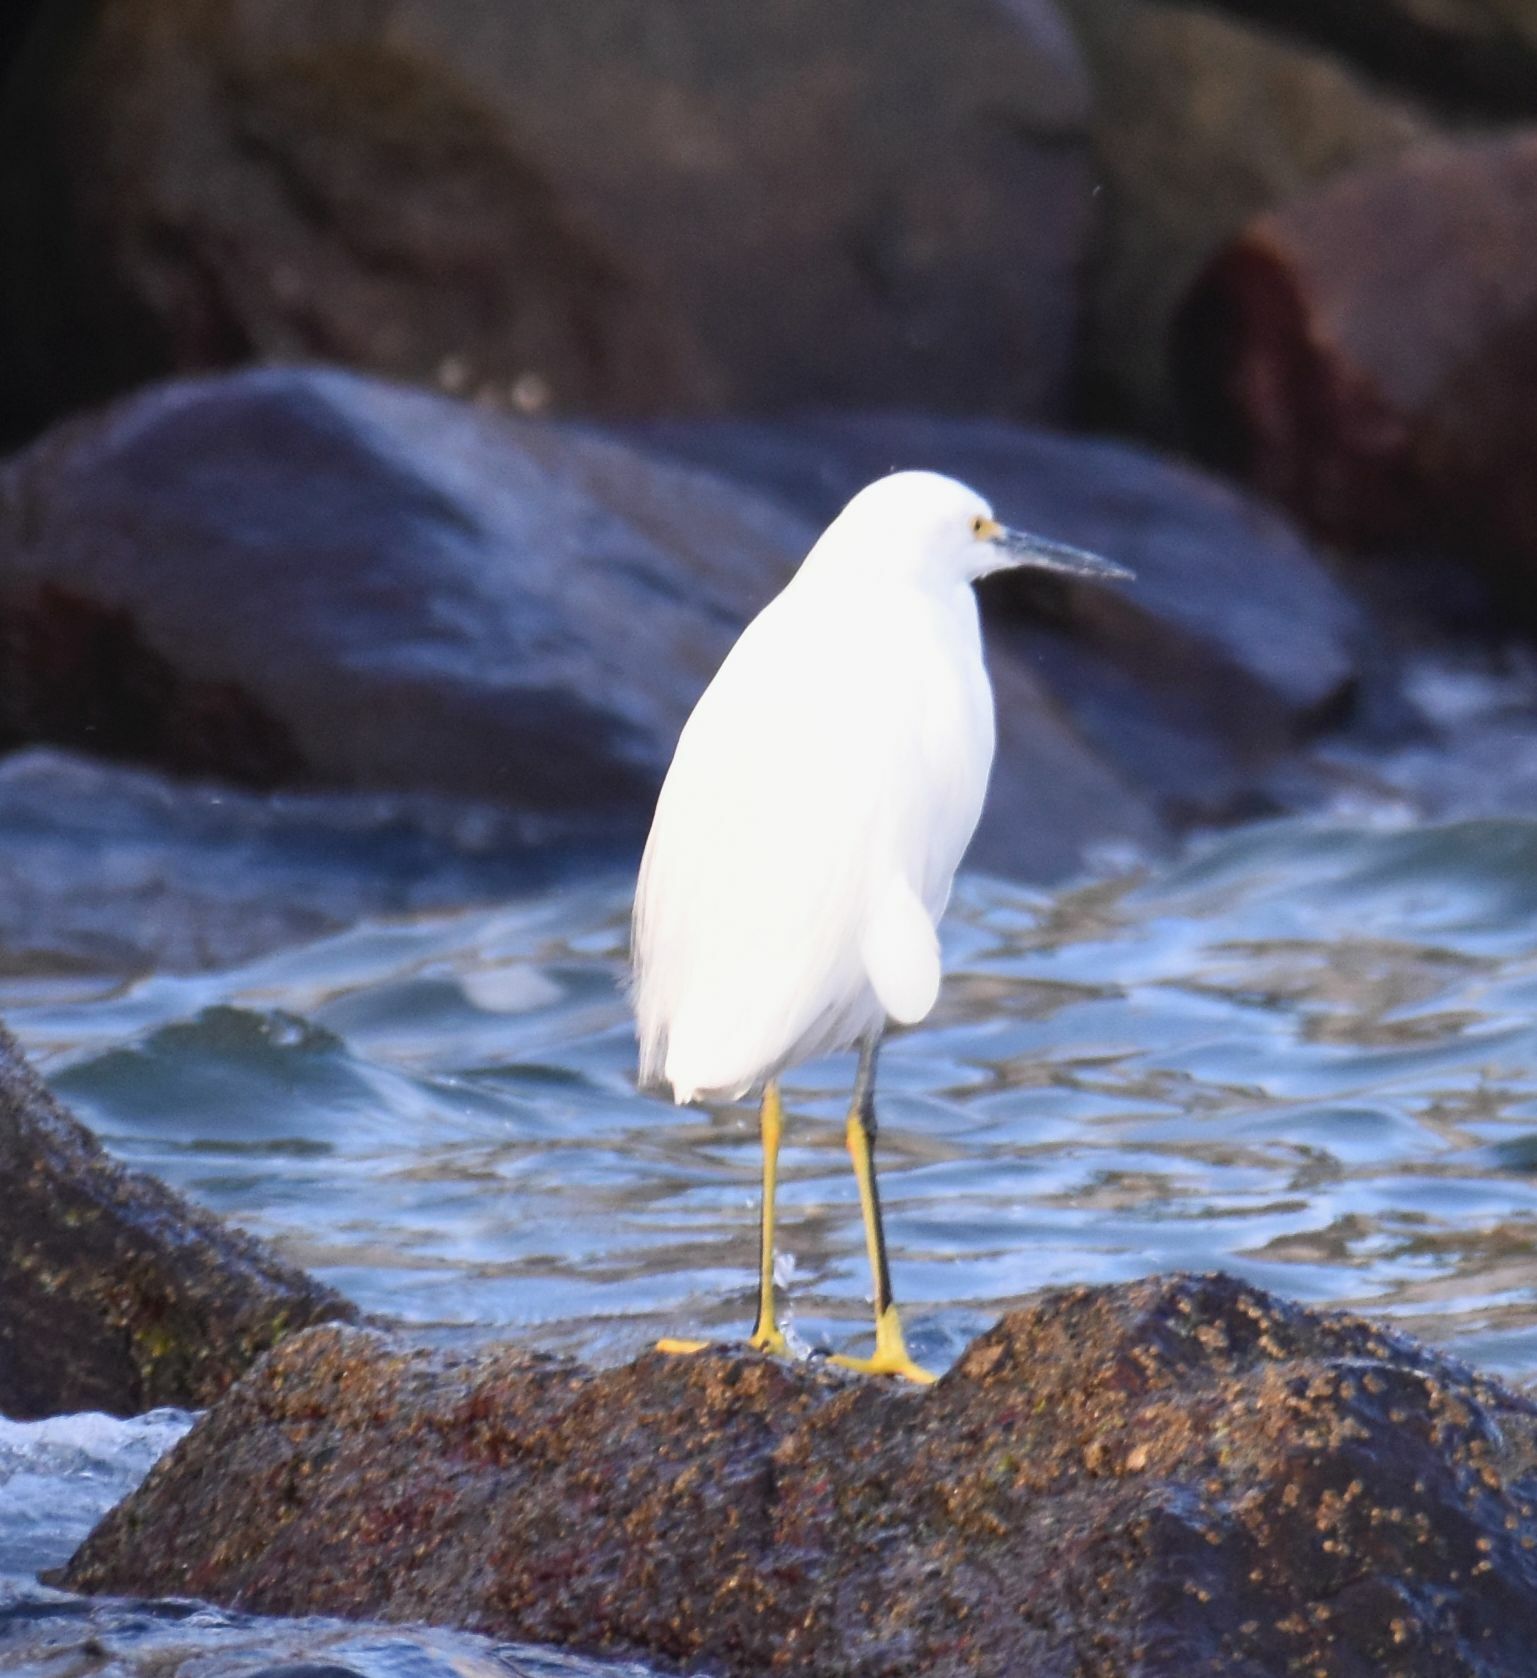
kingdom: Animalia
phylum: Chordata
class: Aves
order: Pelecaniformes
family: Ardeidae
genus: Egretta
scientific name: Egretta thula
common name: Snowy egret
